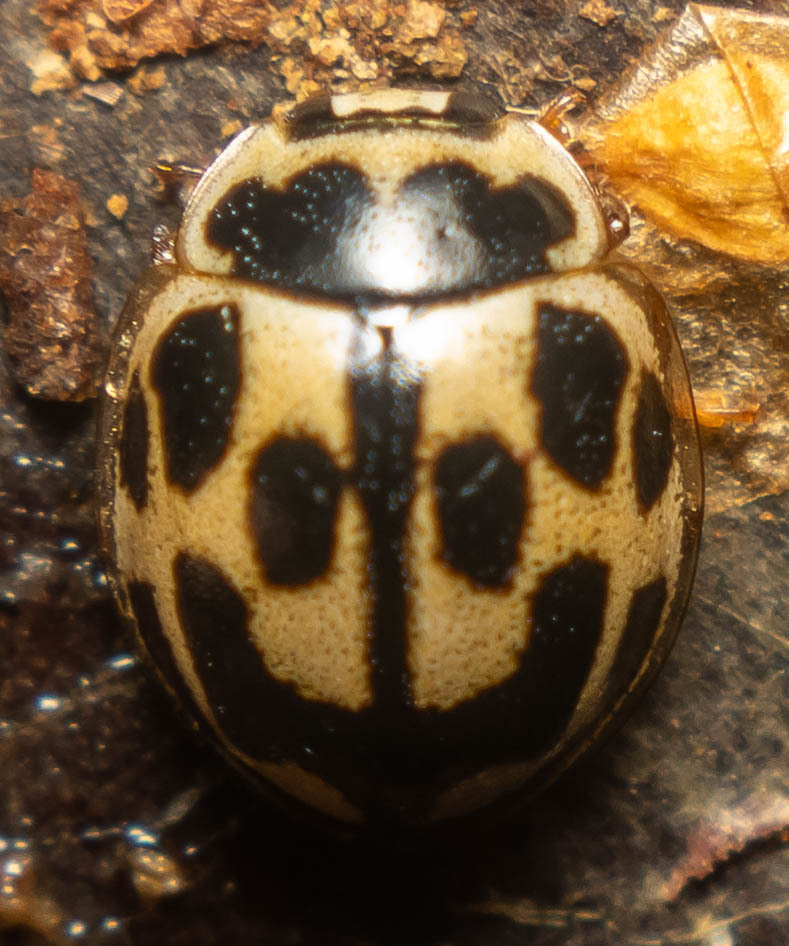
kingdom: Animalia
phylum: Arthropoda
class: Insecta
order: Coleoptera
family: Coccinellidae
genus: Propylaea
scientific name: Propylaea quatuordecimpunctata
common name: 14-spotted ladybird beetle
